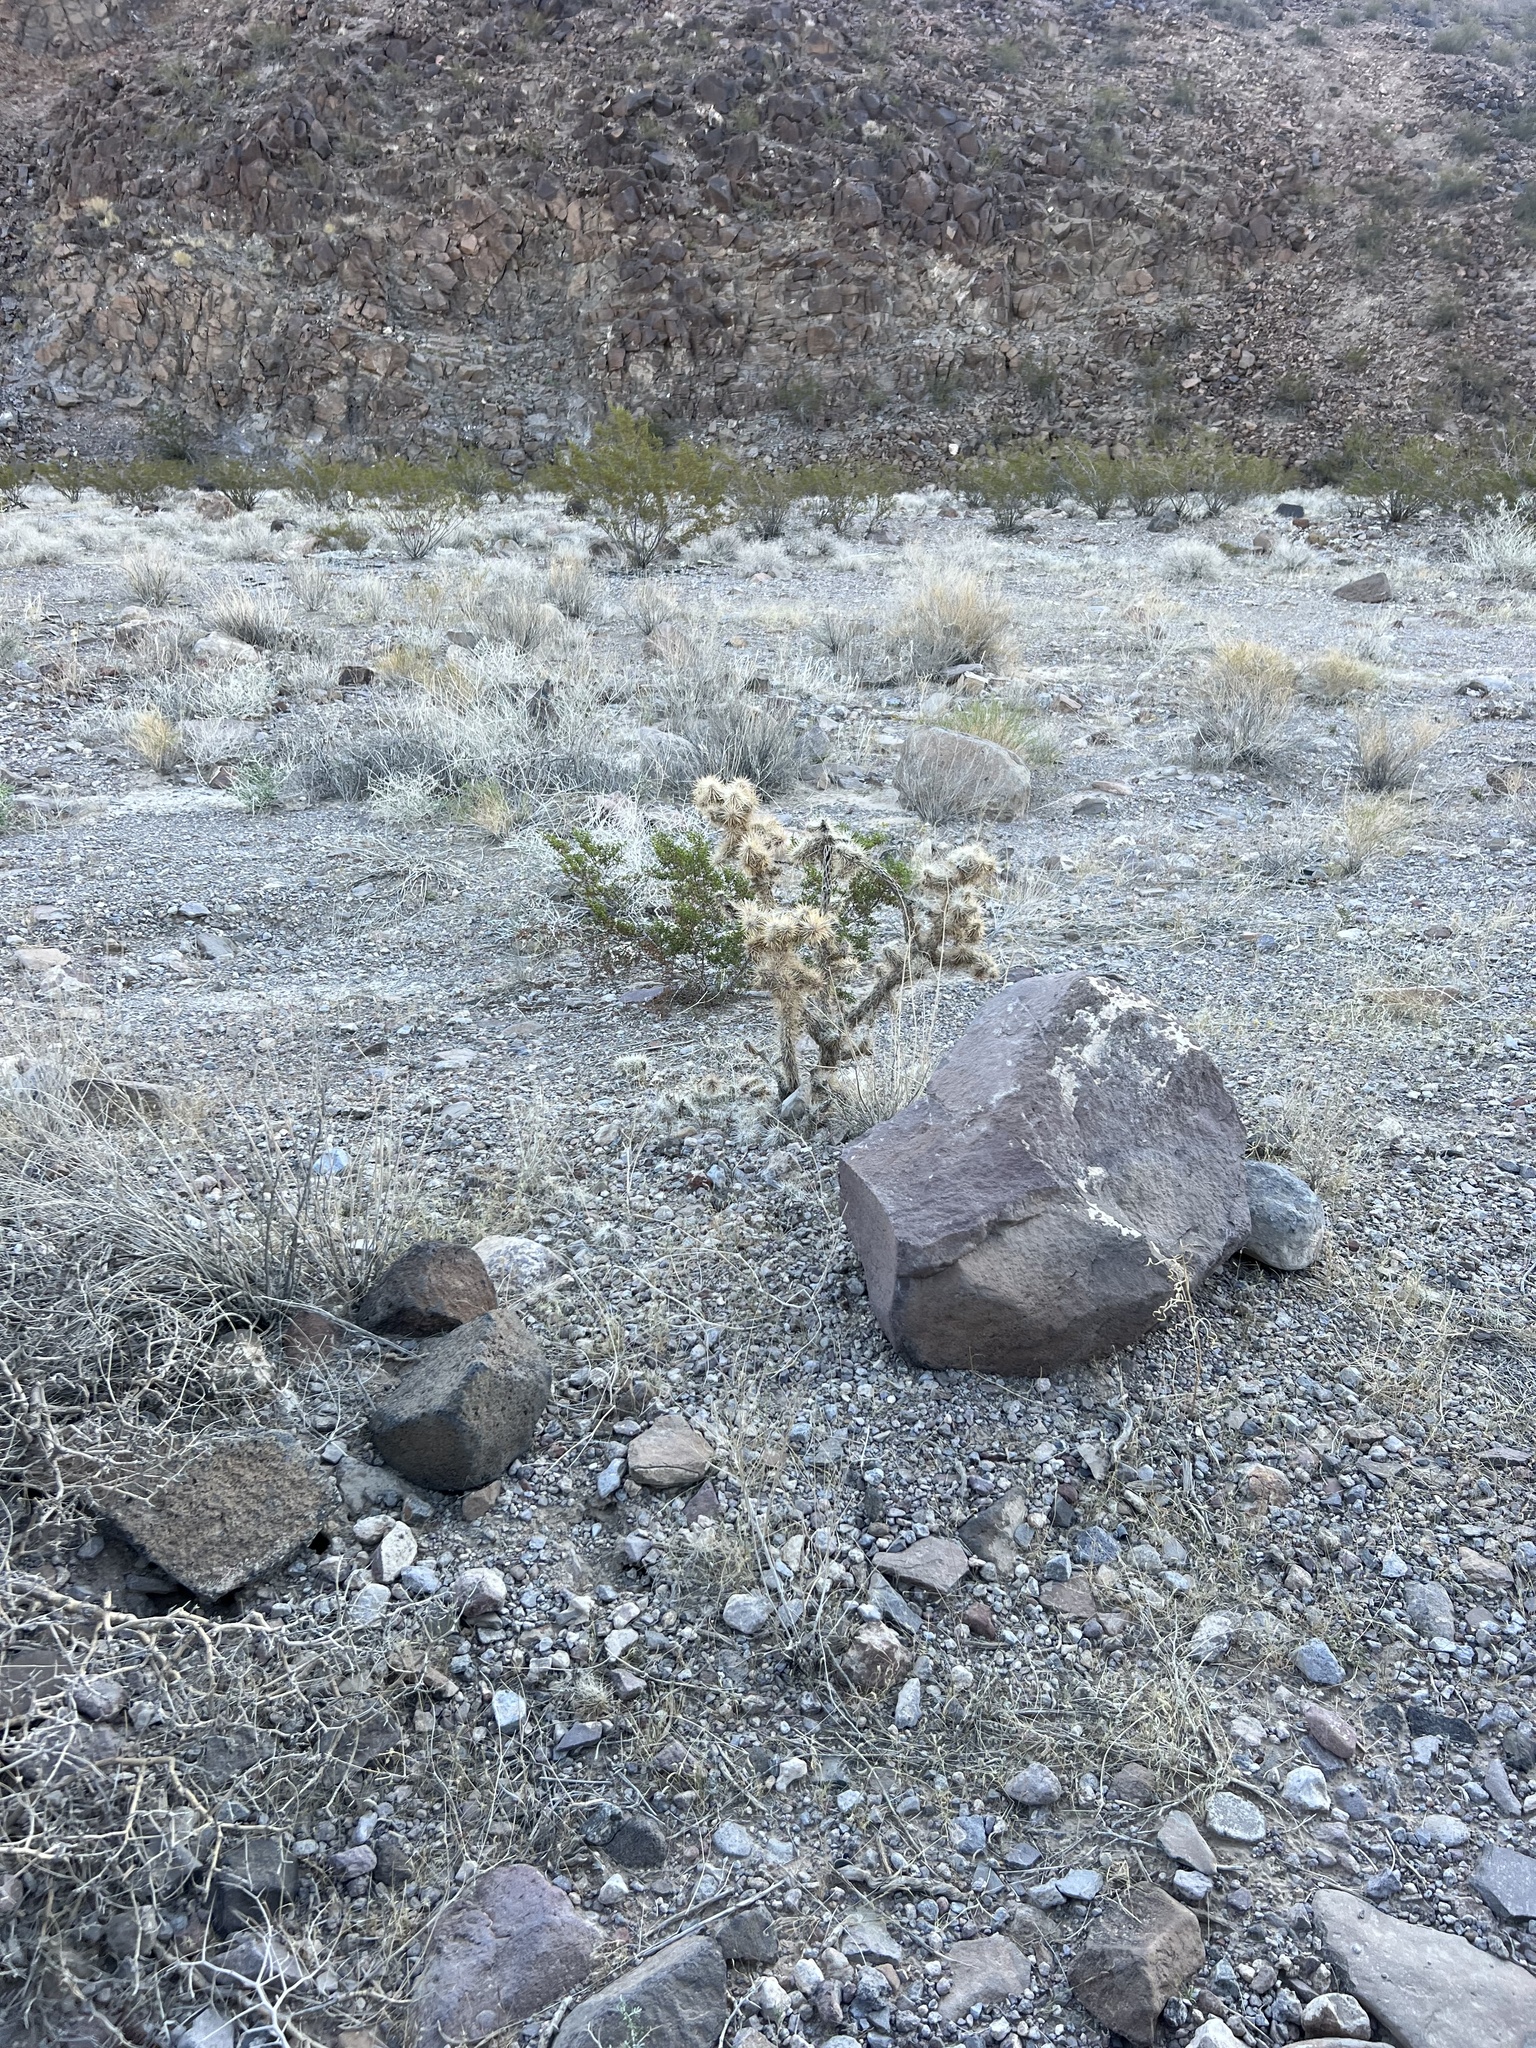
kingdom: Plantae
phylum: Tracheophyta
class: Magnoliopsida
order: Caryophyllales
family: Cactaceae
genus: Cylindropuntia
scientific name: Cylindropuntia echinocarpa
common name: Ground cholla
